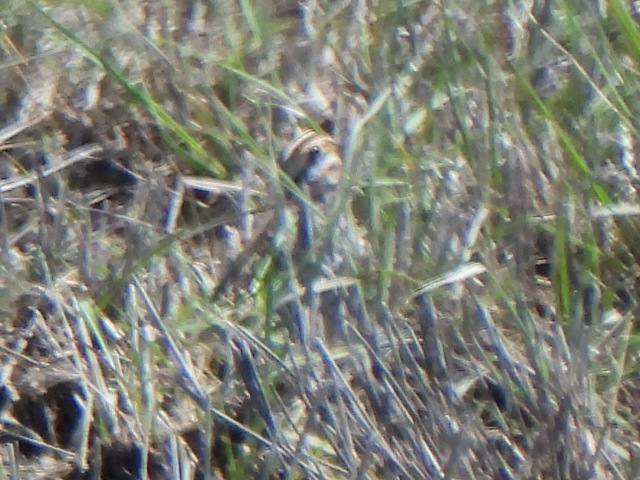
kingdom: Animalia
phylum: Chordata
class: Aves
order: Charadriiformes
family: Scolopacidae
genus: Gallinago
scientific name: Gallinago delicata
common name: Wilson's snipe
